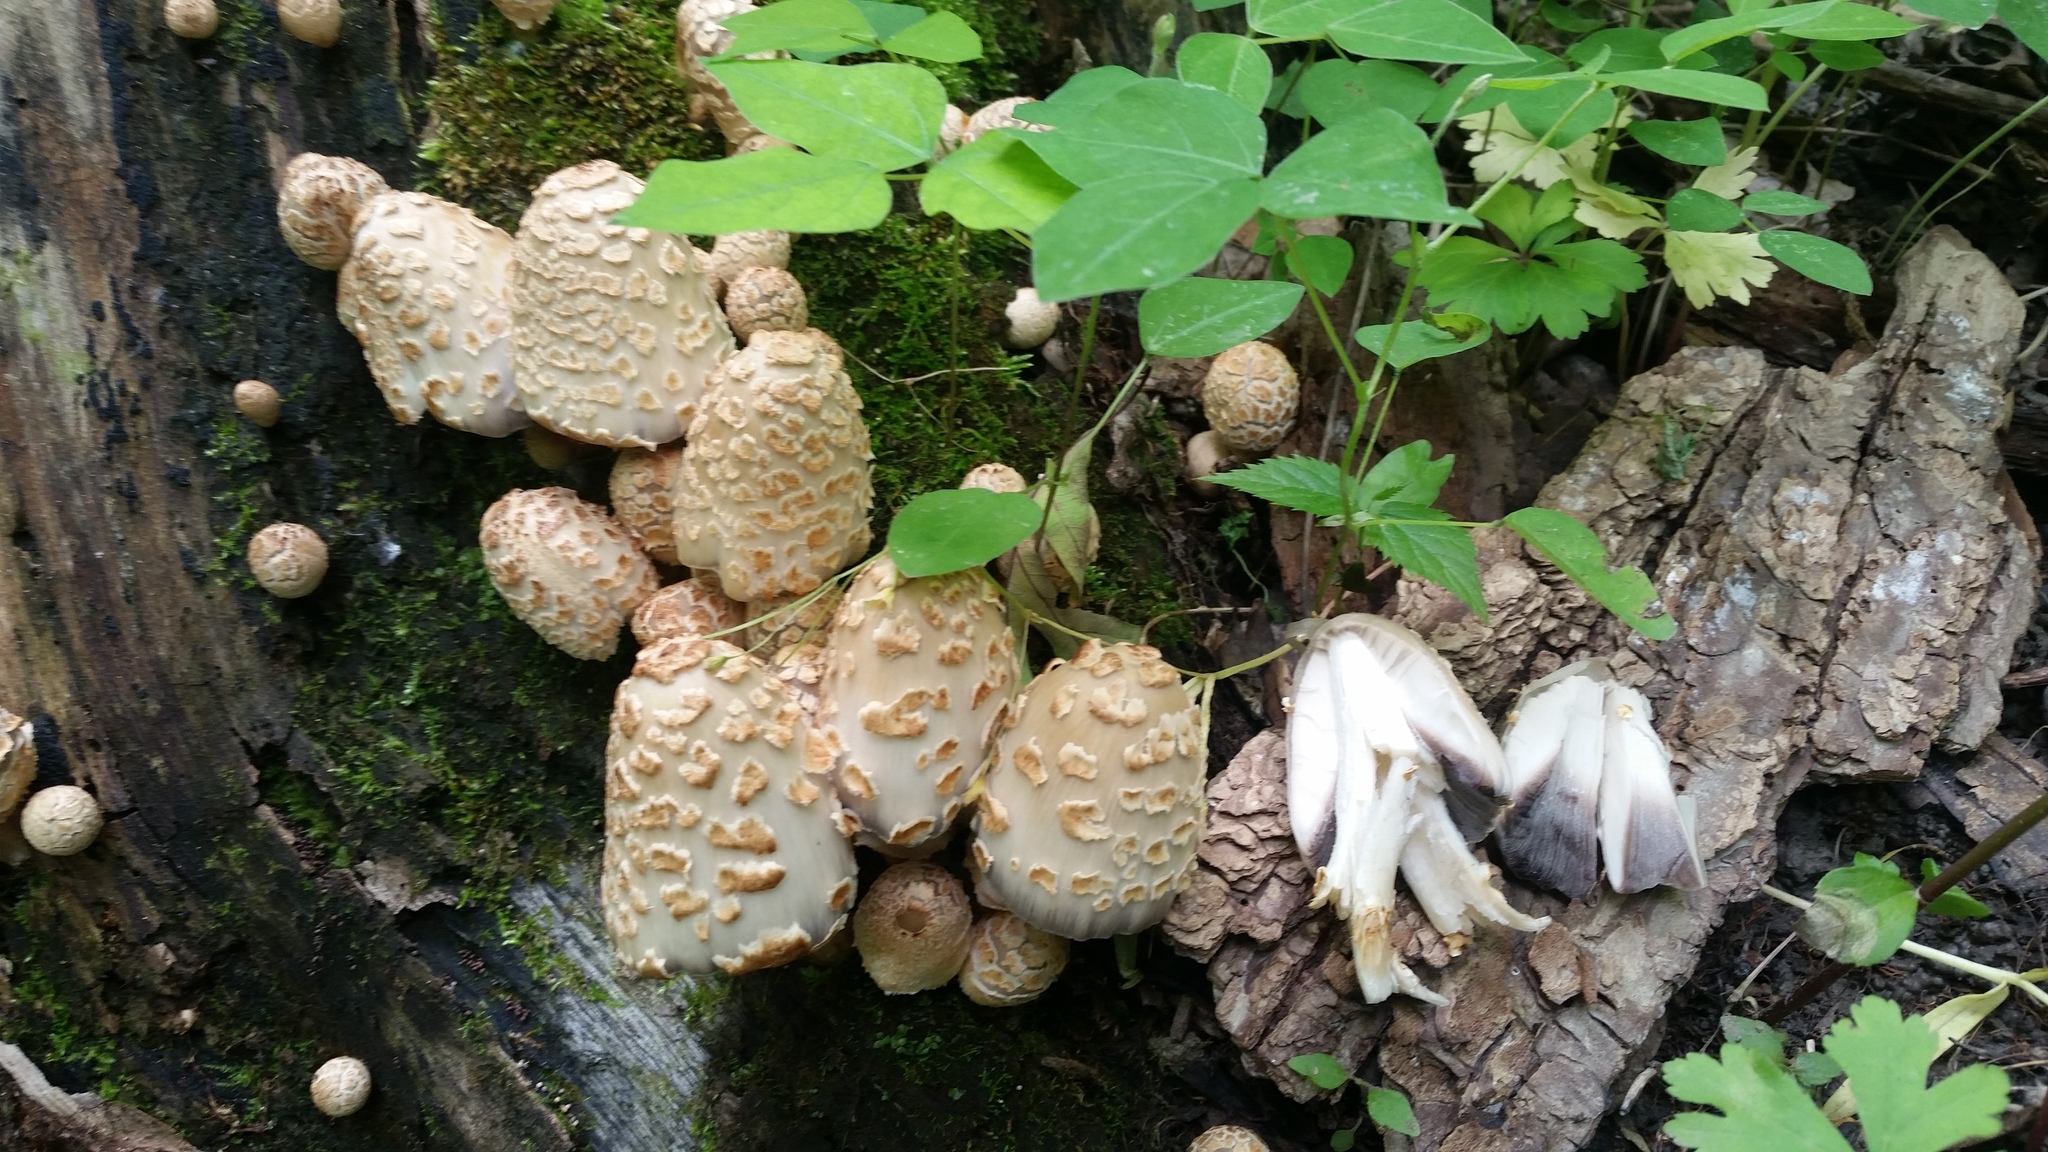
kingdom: Fungi
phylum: Basidiomycota
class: Agaricomycetes
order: Agaricales
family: Psathyrellaceae
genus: Coprinopsis
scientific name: Coprinopsis variegata
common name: Scaly ink cap
